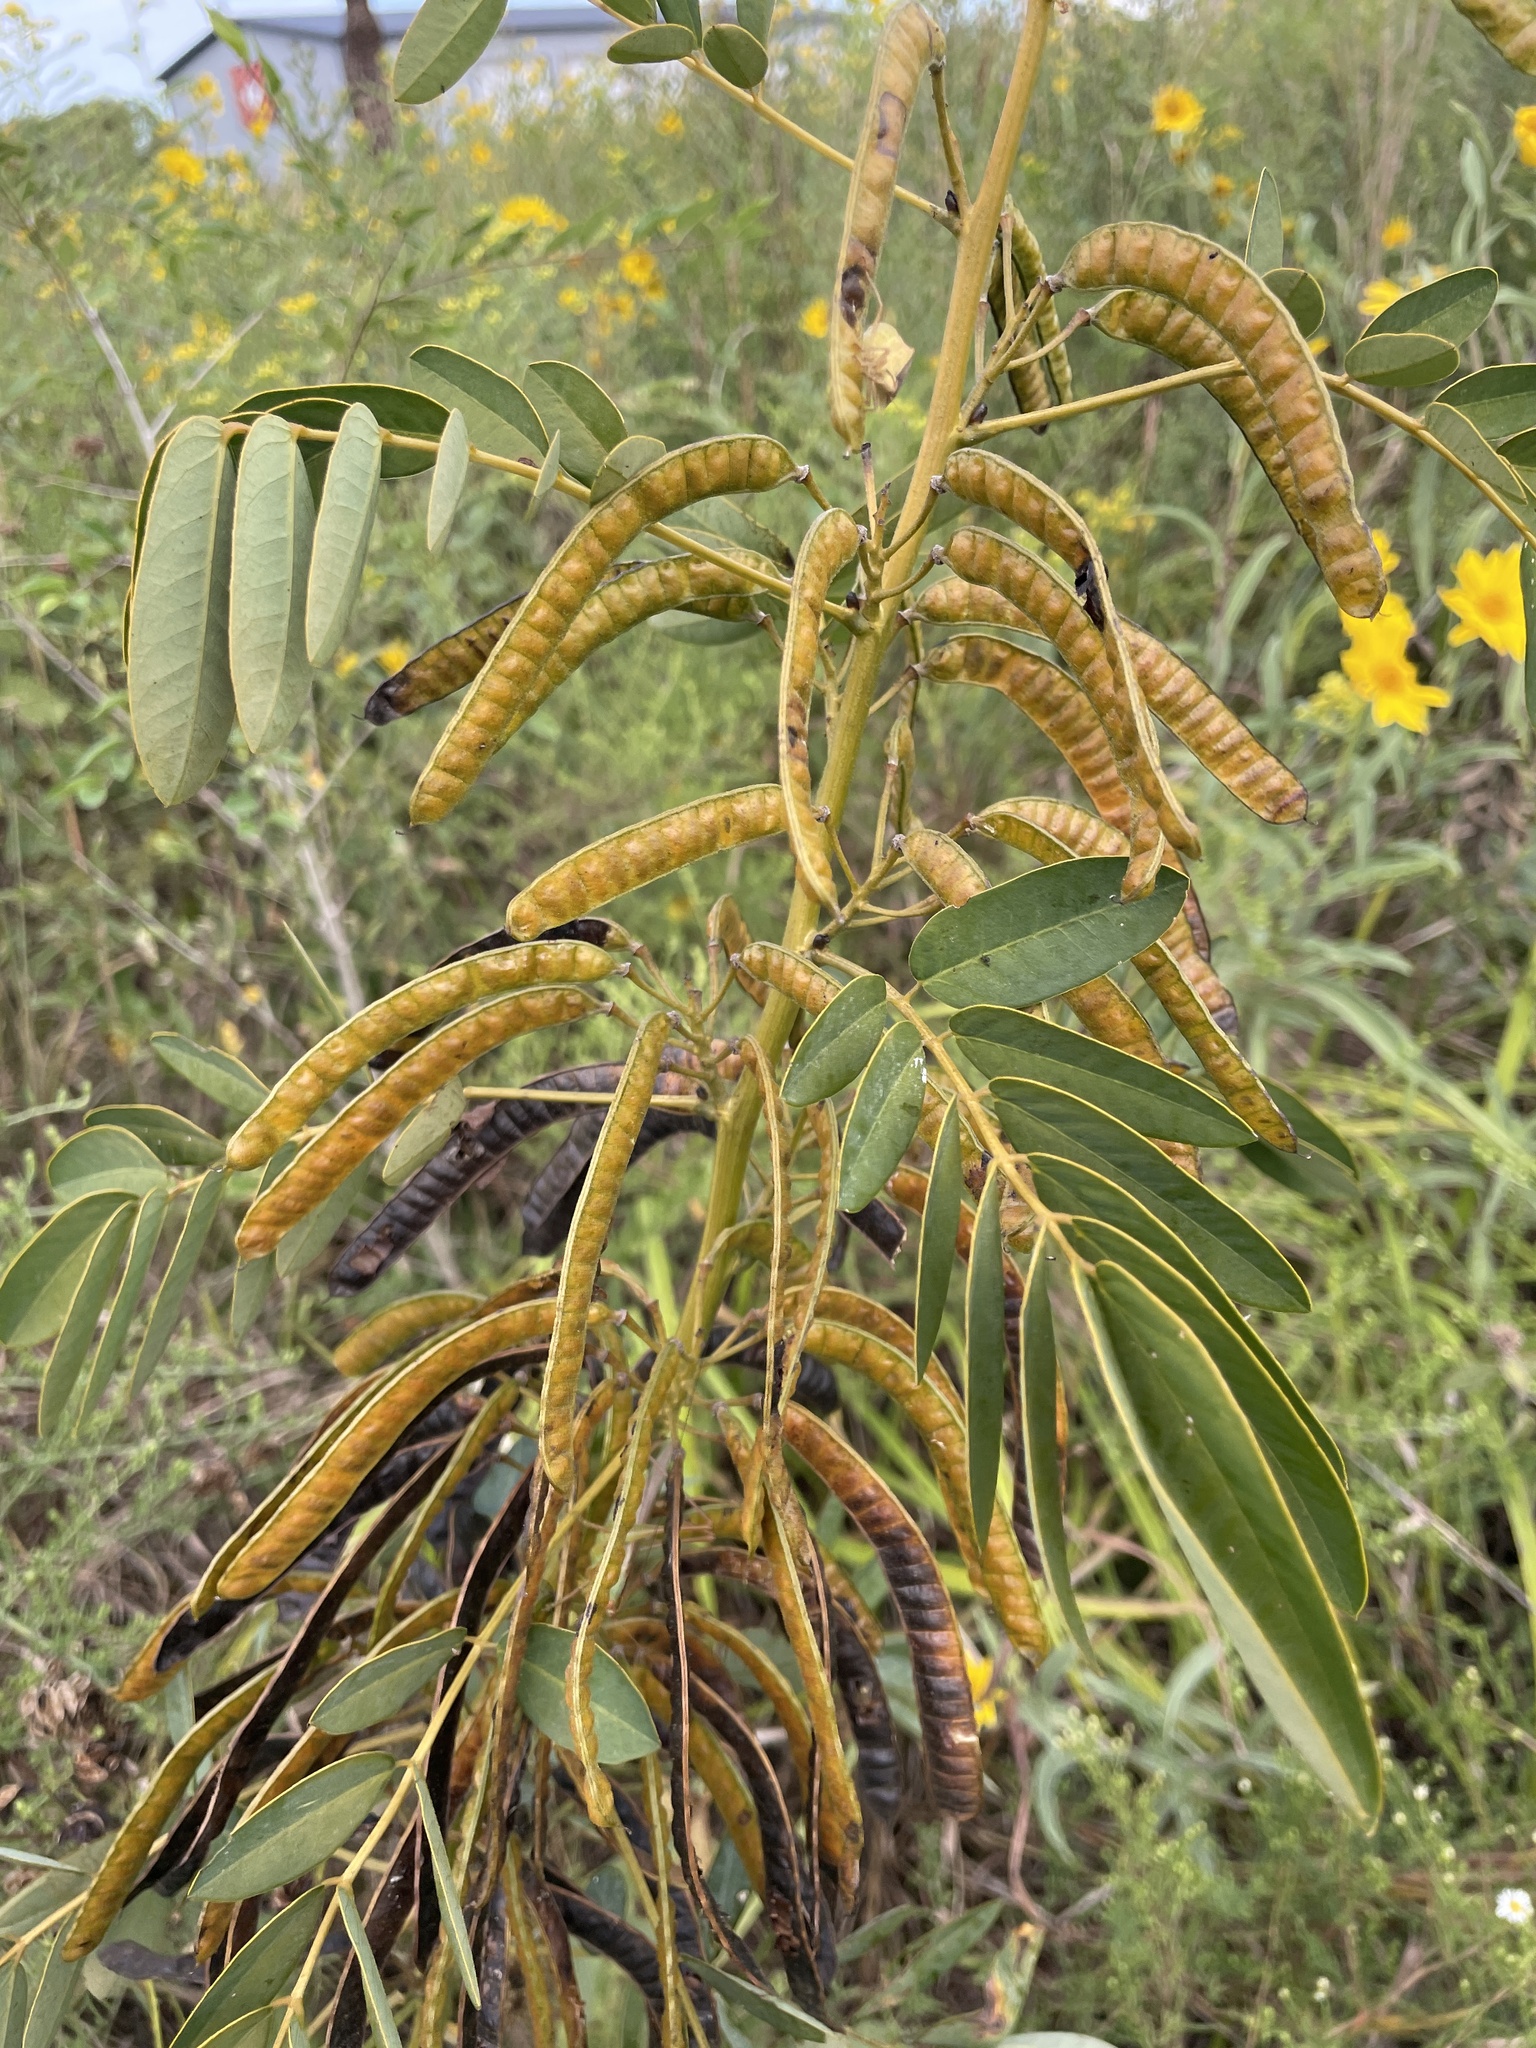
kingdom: Plantae
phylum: Tracheophyta
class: Magnoliopsida
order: Fabales
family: Fabaceae
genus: Senna
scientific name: Senna marilandica
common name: American senna
